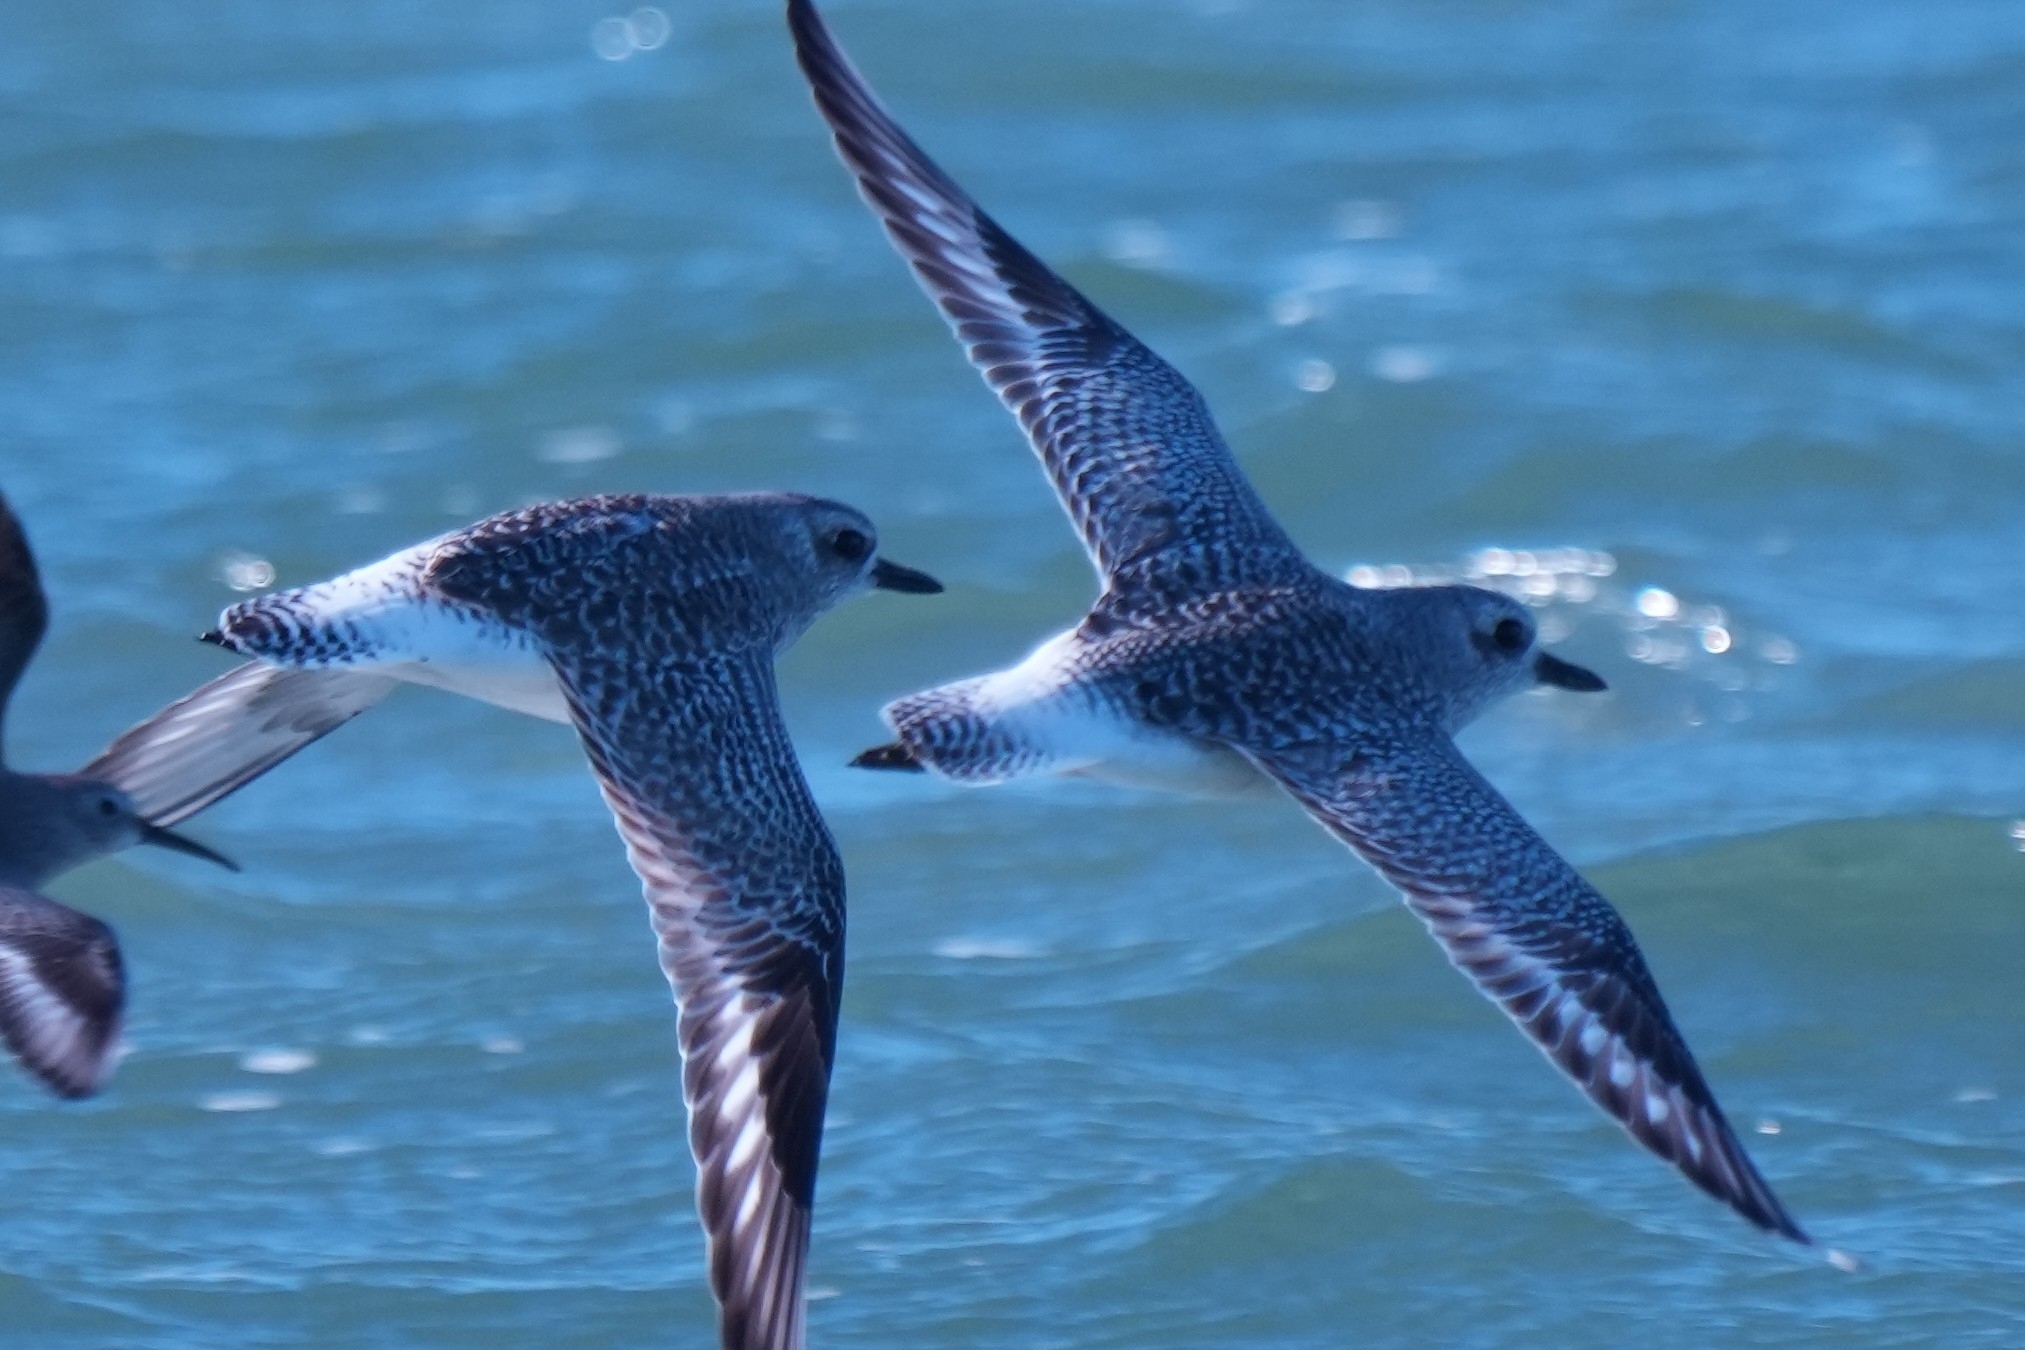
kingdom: Animalia
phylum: Chordata
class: Aves
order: Charadriiformes
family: Charadriidae
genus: Pluvialis
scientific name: Pluvialis squatarola
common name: Grey plover
